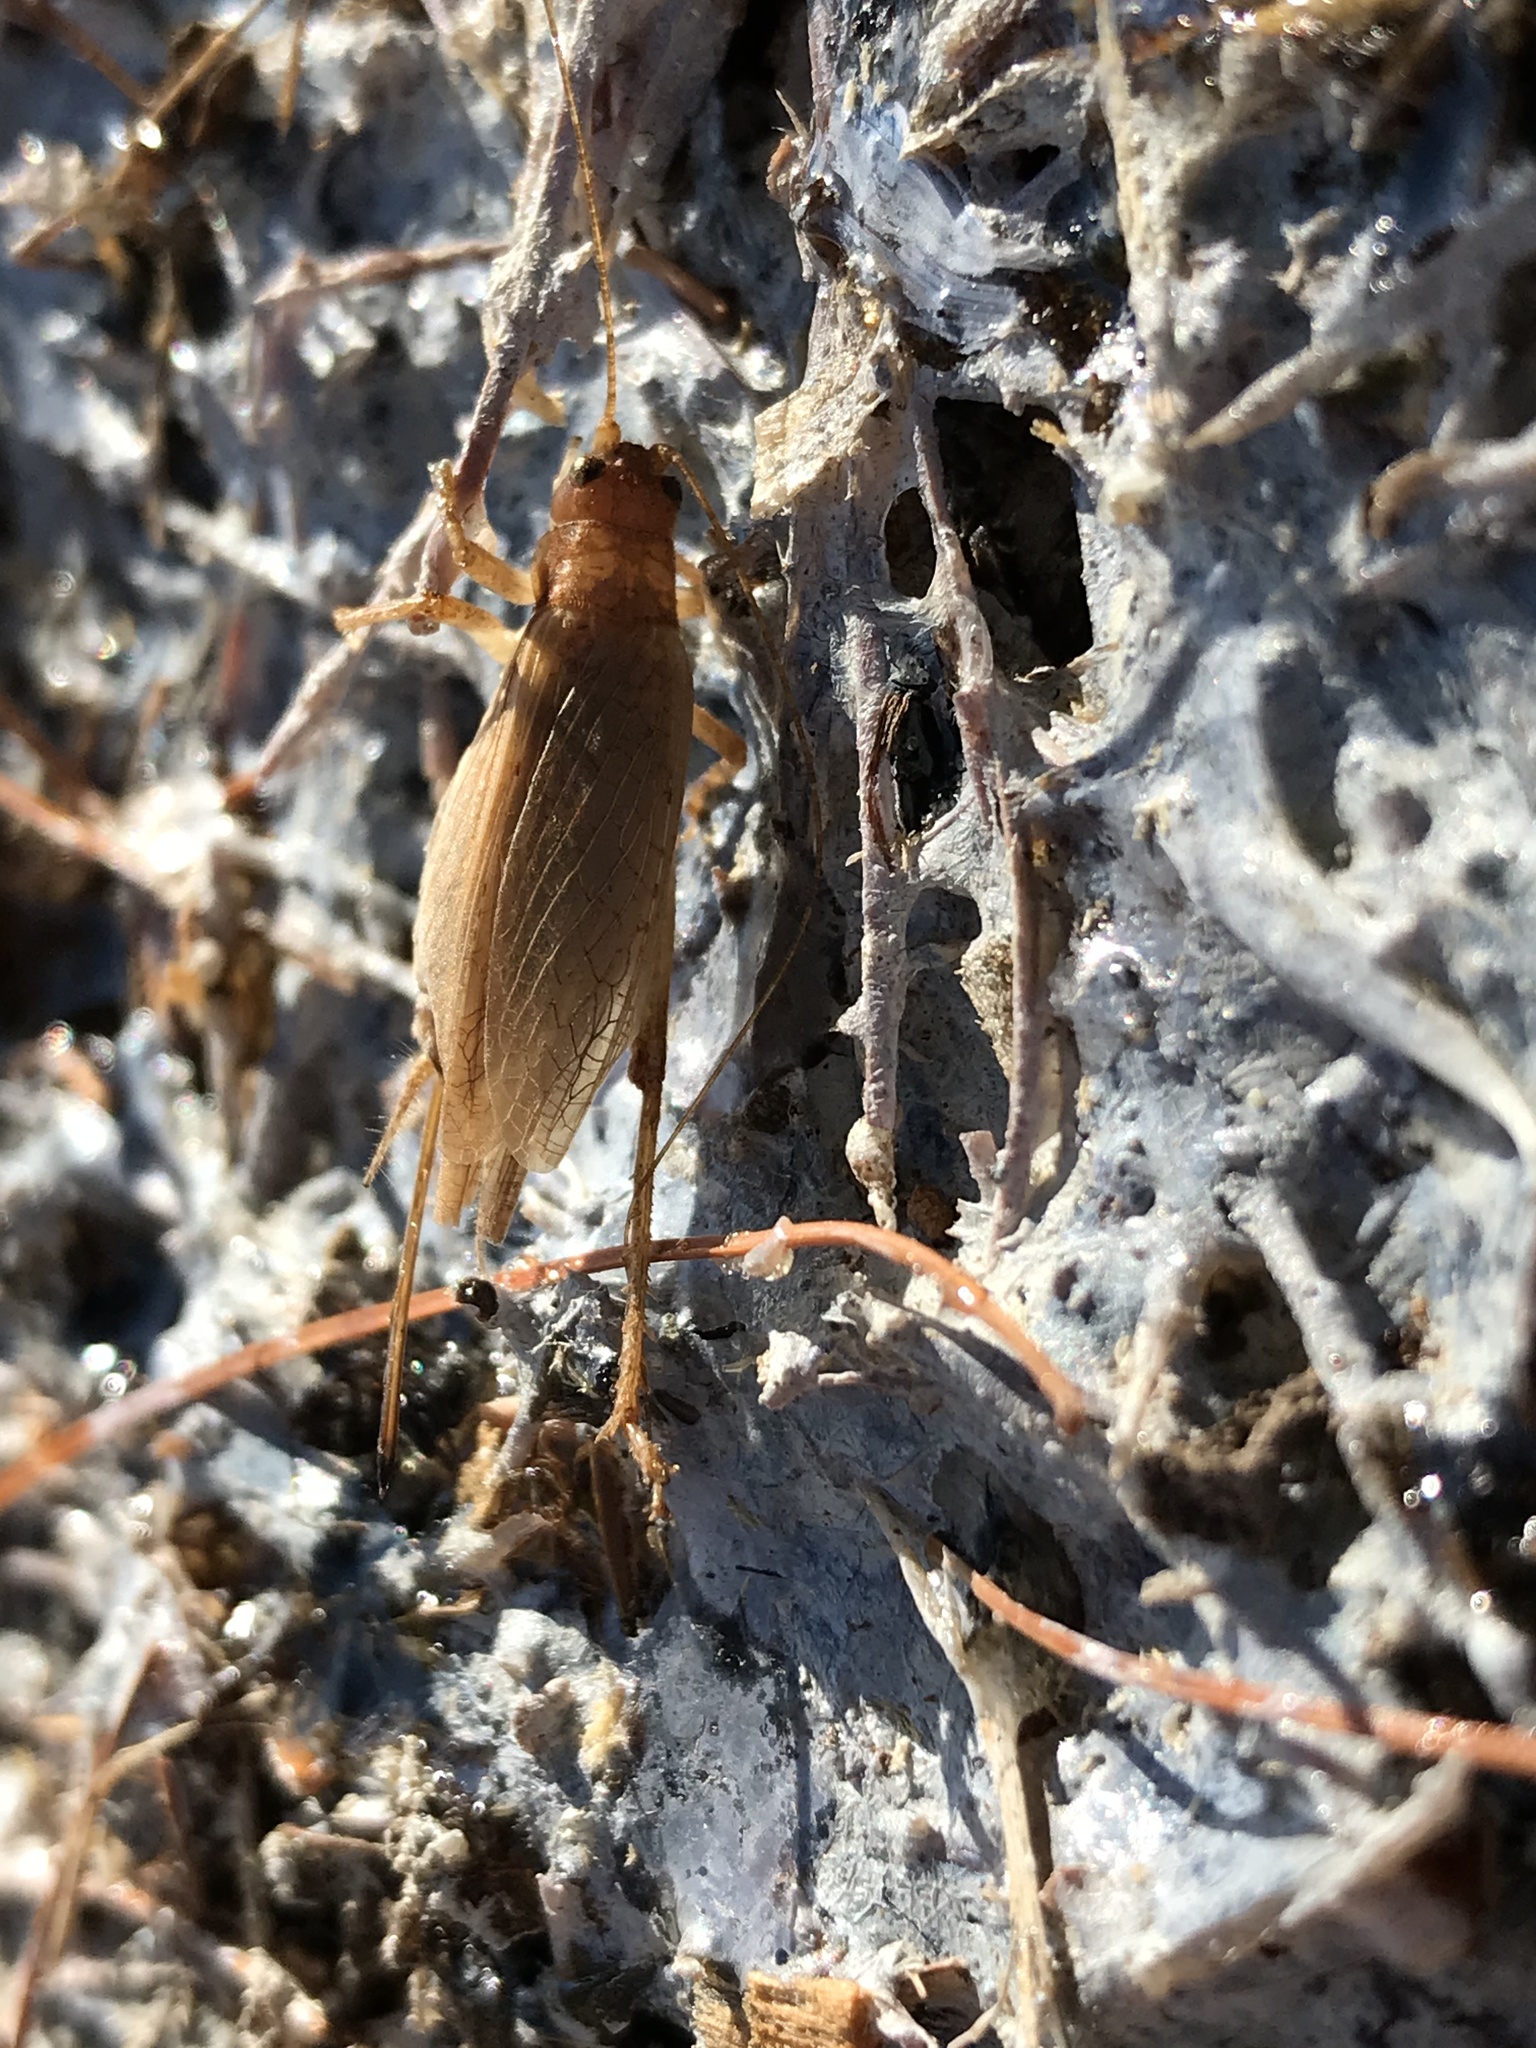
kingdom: Animalia
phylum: Arthropoda
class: Insecta
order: Orthoptera
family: Gryllidae
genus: Hapithus
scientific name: Hapithus saltator
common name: Jumping bush cricket
